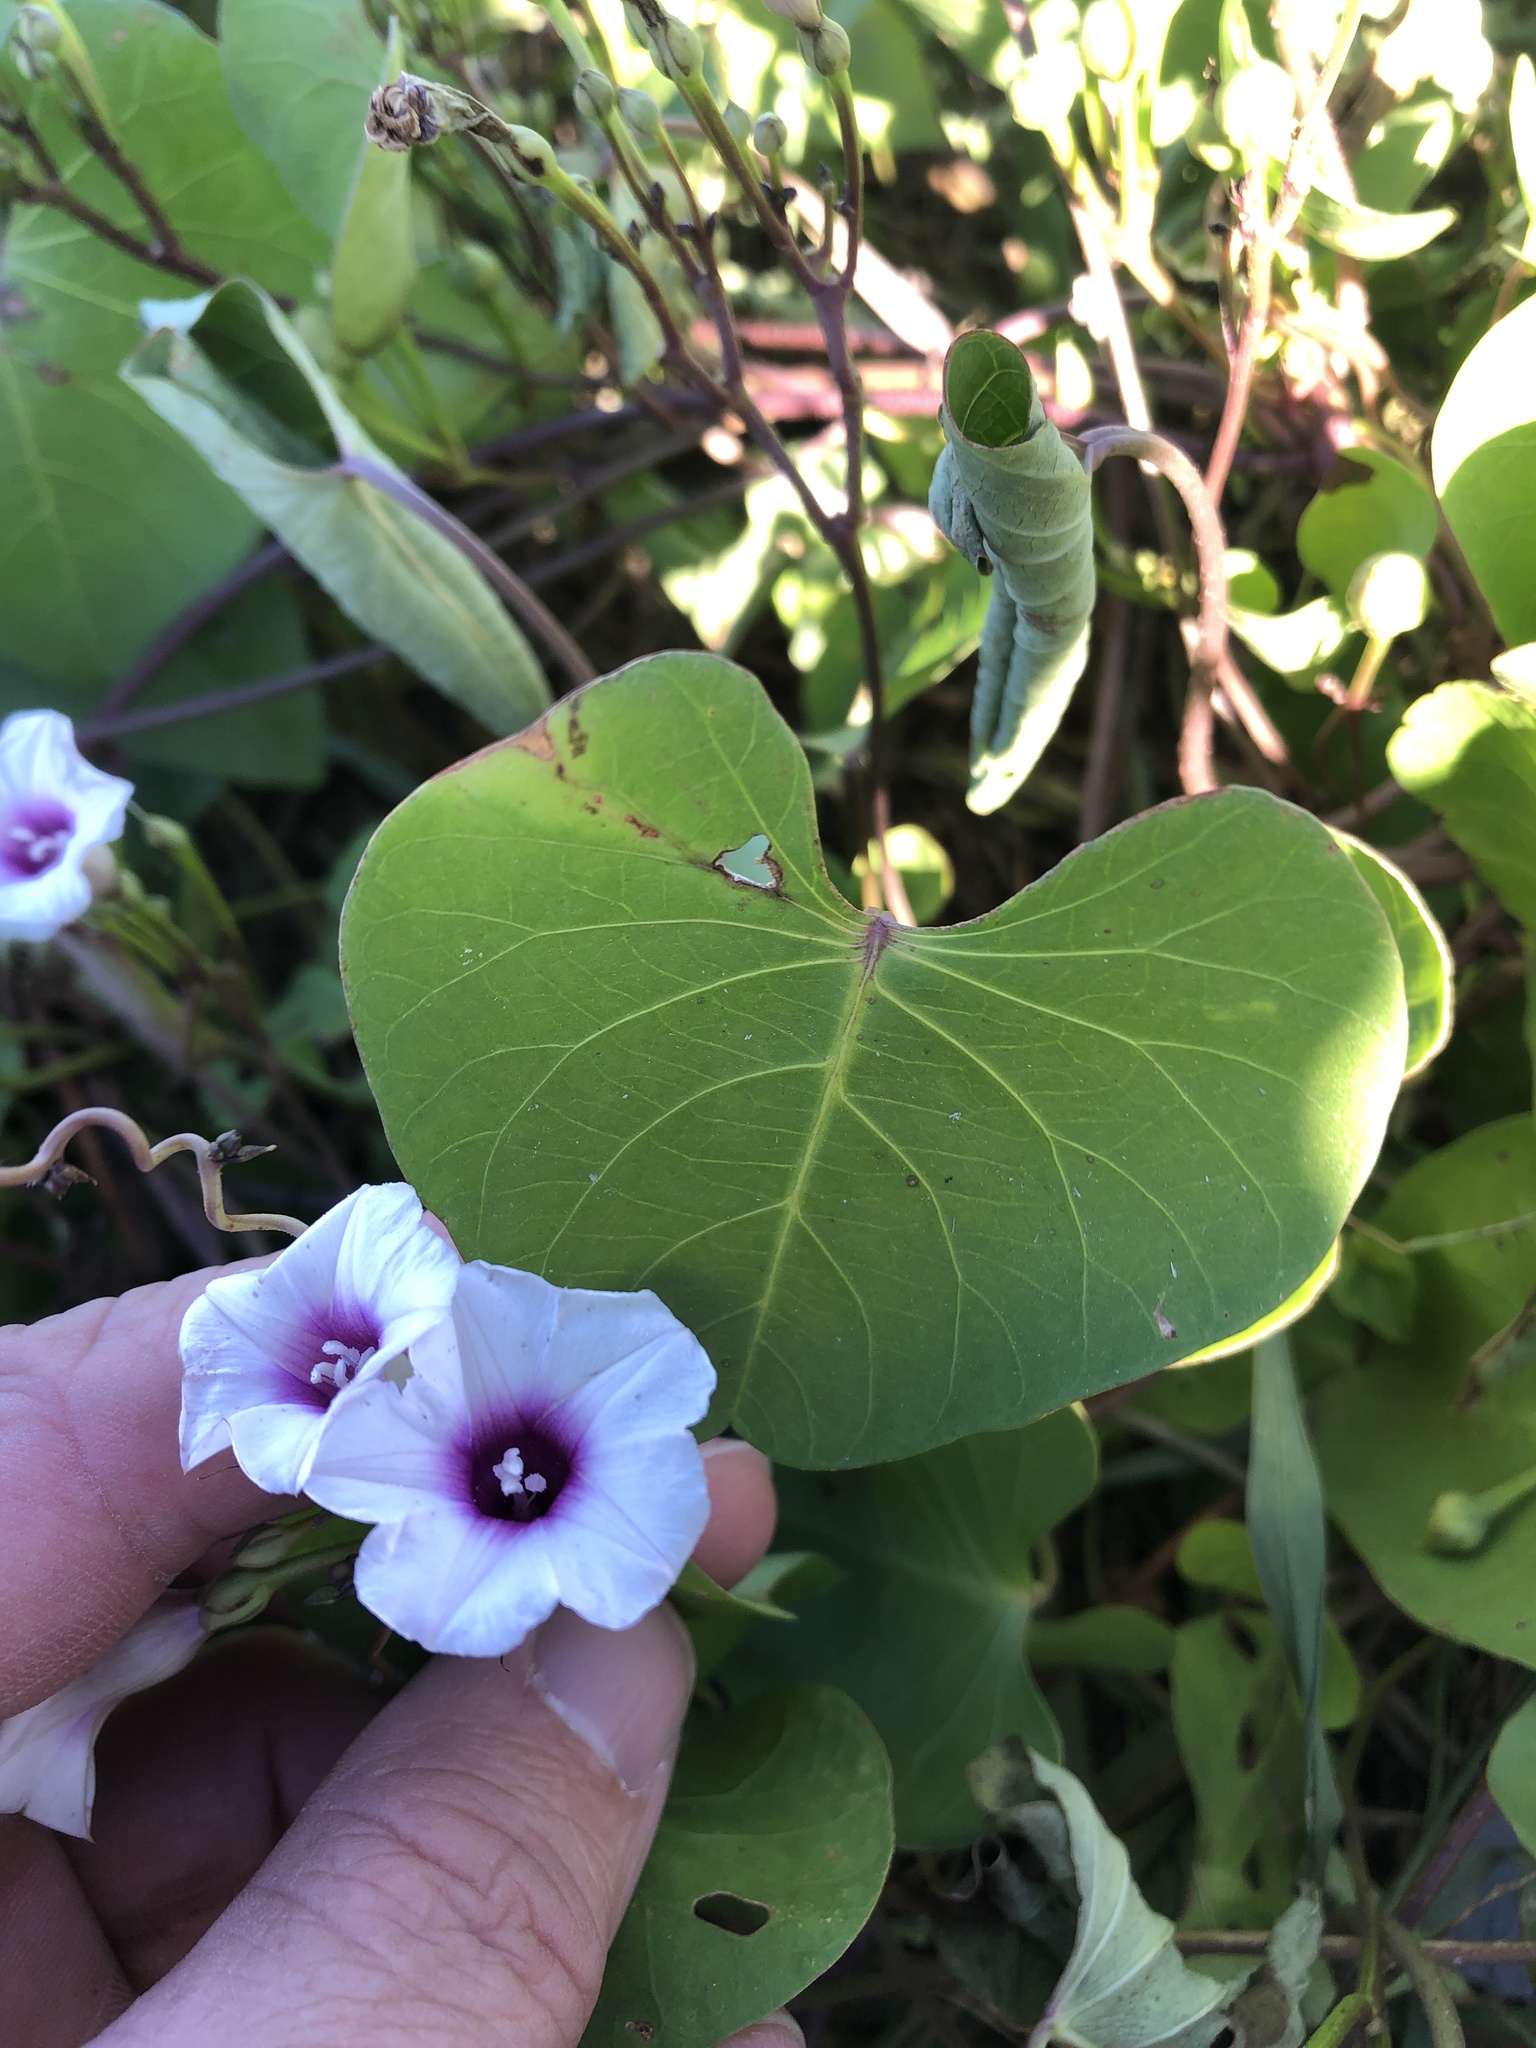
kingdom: Plantae
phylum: Tracheophyta
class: Magnoliopsida
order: Solanales
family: Convolvulaceae
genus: Ipomoea
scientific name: Ipomoea amnicola
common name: Redcenter morning-glory
